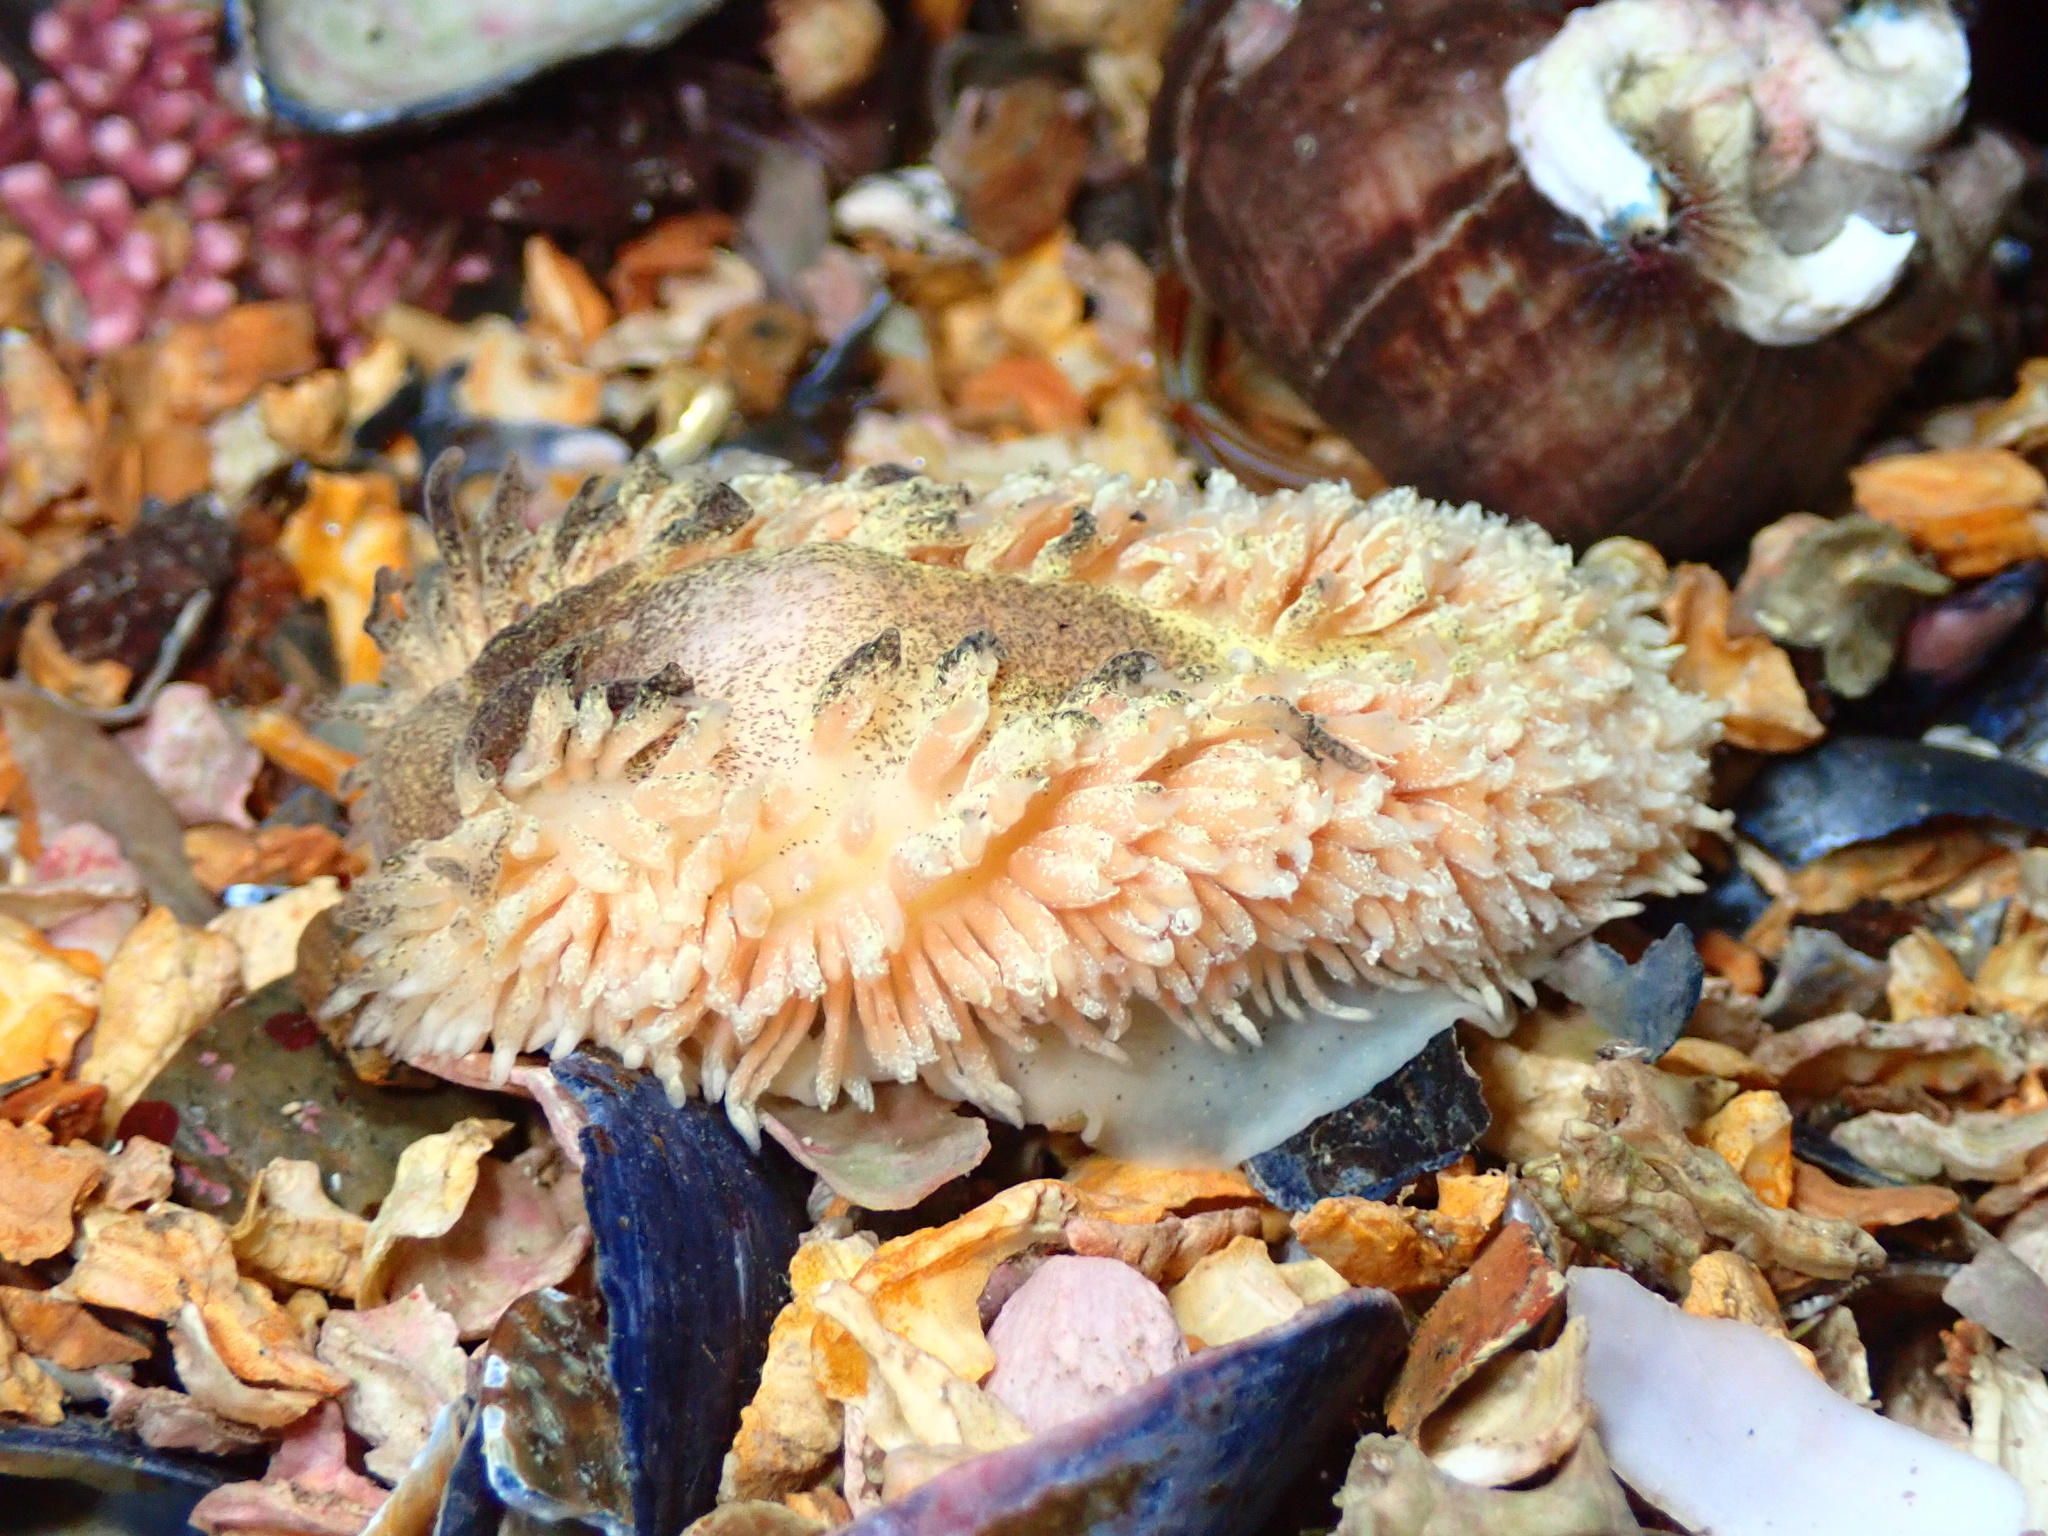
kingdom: Animalia
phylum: Mollusca
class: Gastropoda
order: Nudibranchia
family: Aeolidiidae
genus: Aeolidia
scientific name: Aeolidia papillosa
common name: Common grey sea slug
